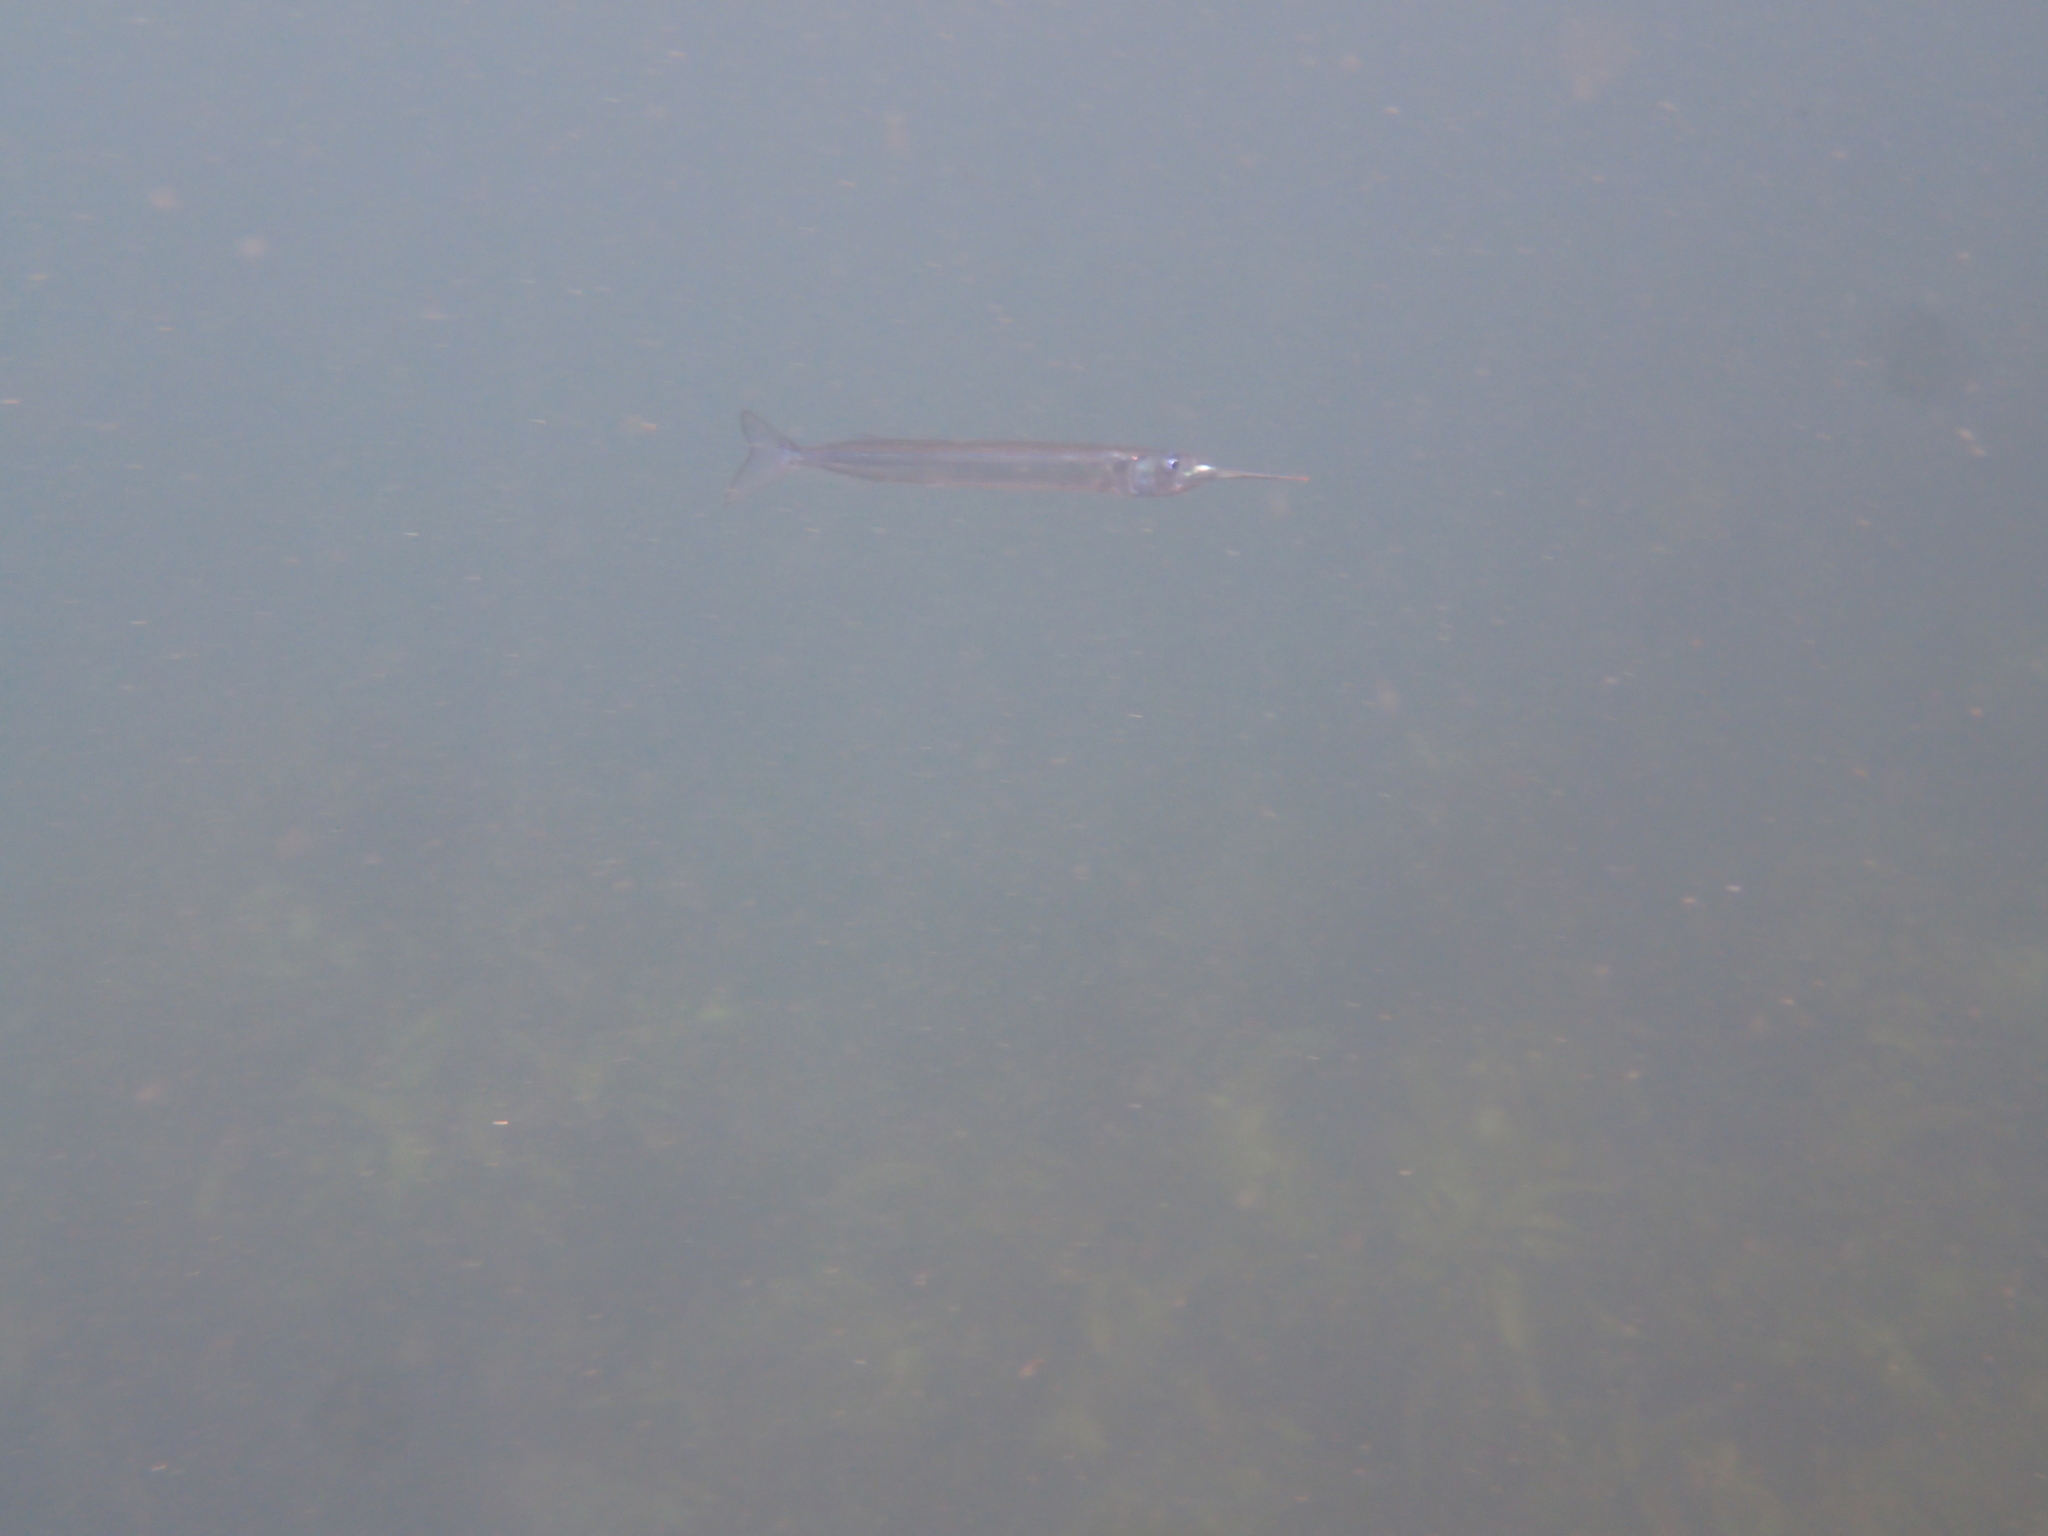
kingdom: Animalia
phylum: Chordata
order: Beloniformes
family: Hemiramphidae
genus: Hyporhamphus
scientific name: Hyporhamphus ihi
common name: Garfish
